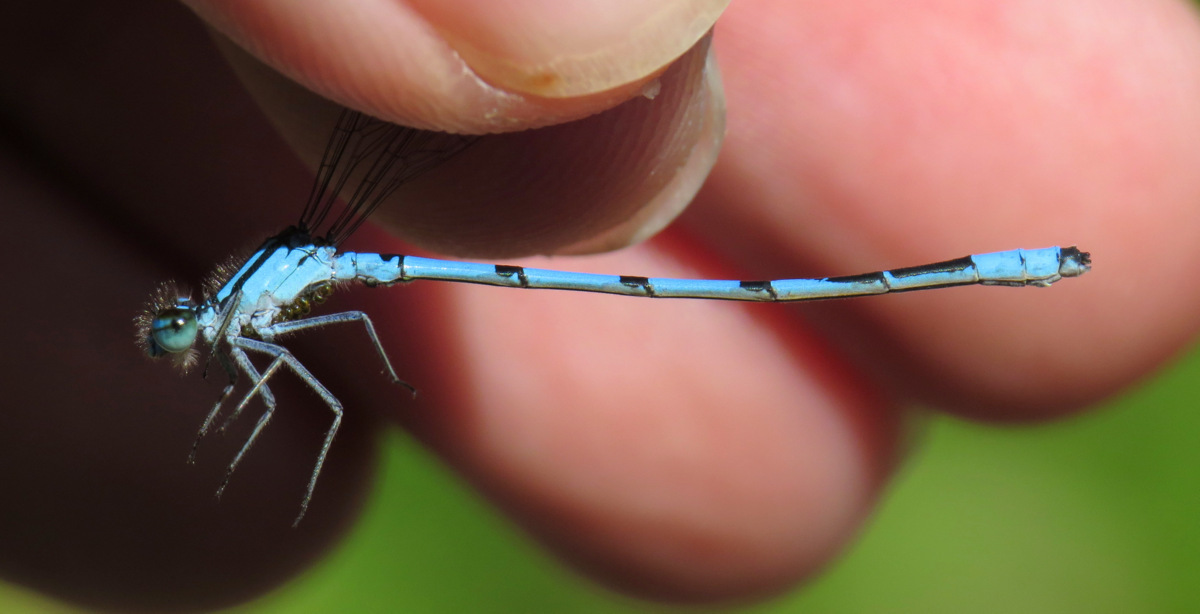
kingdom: Animalia
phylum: Arthropoda
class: Insecta
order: Odonata
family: Coenagrionidae
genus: Enallagma
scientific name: Enallagma ebrium
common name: Marsh bluet
